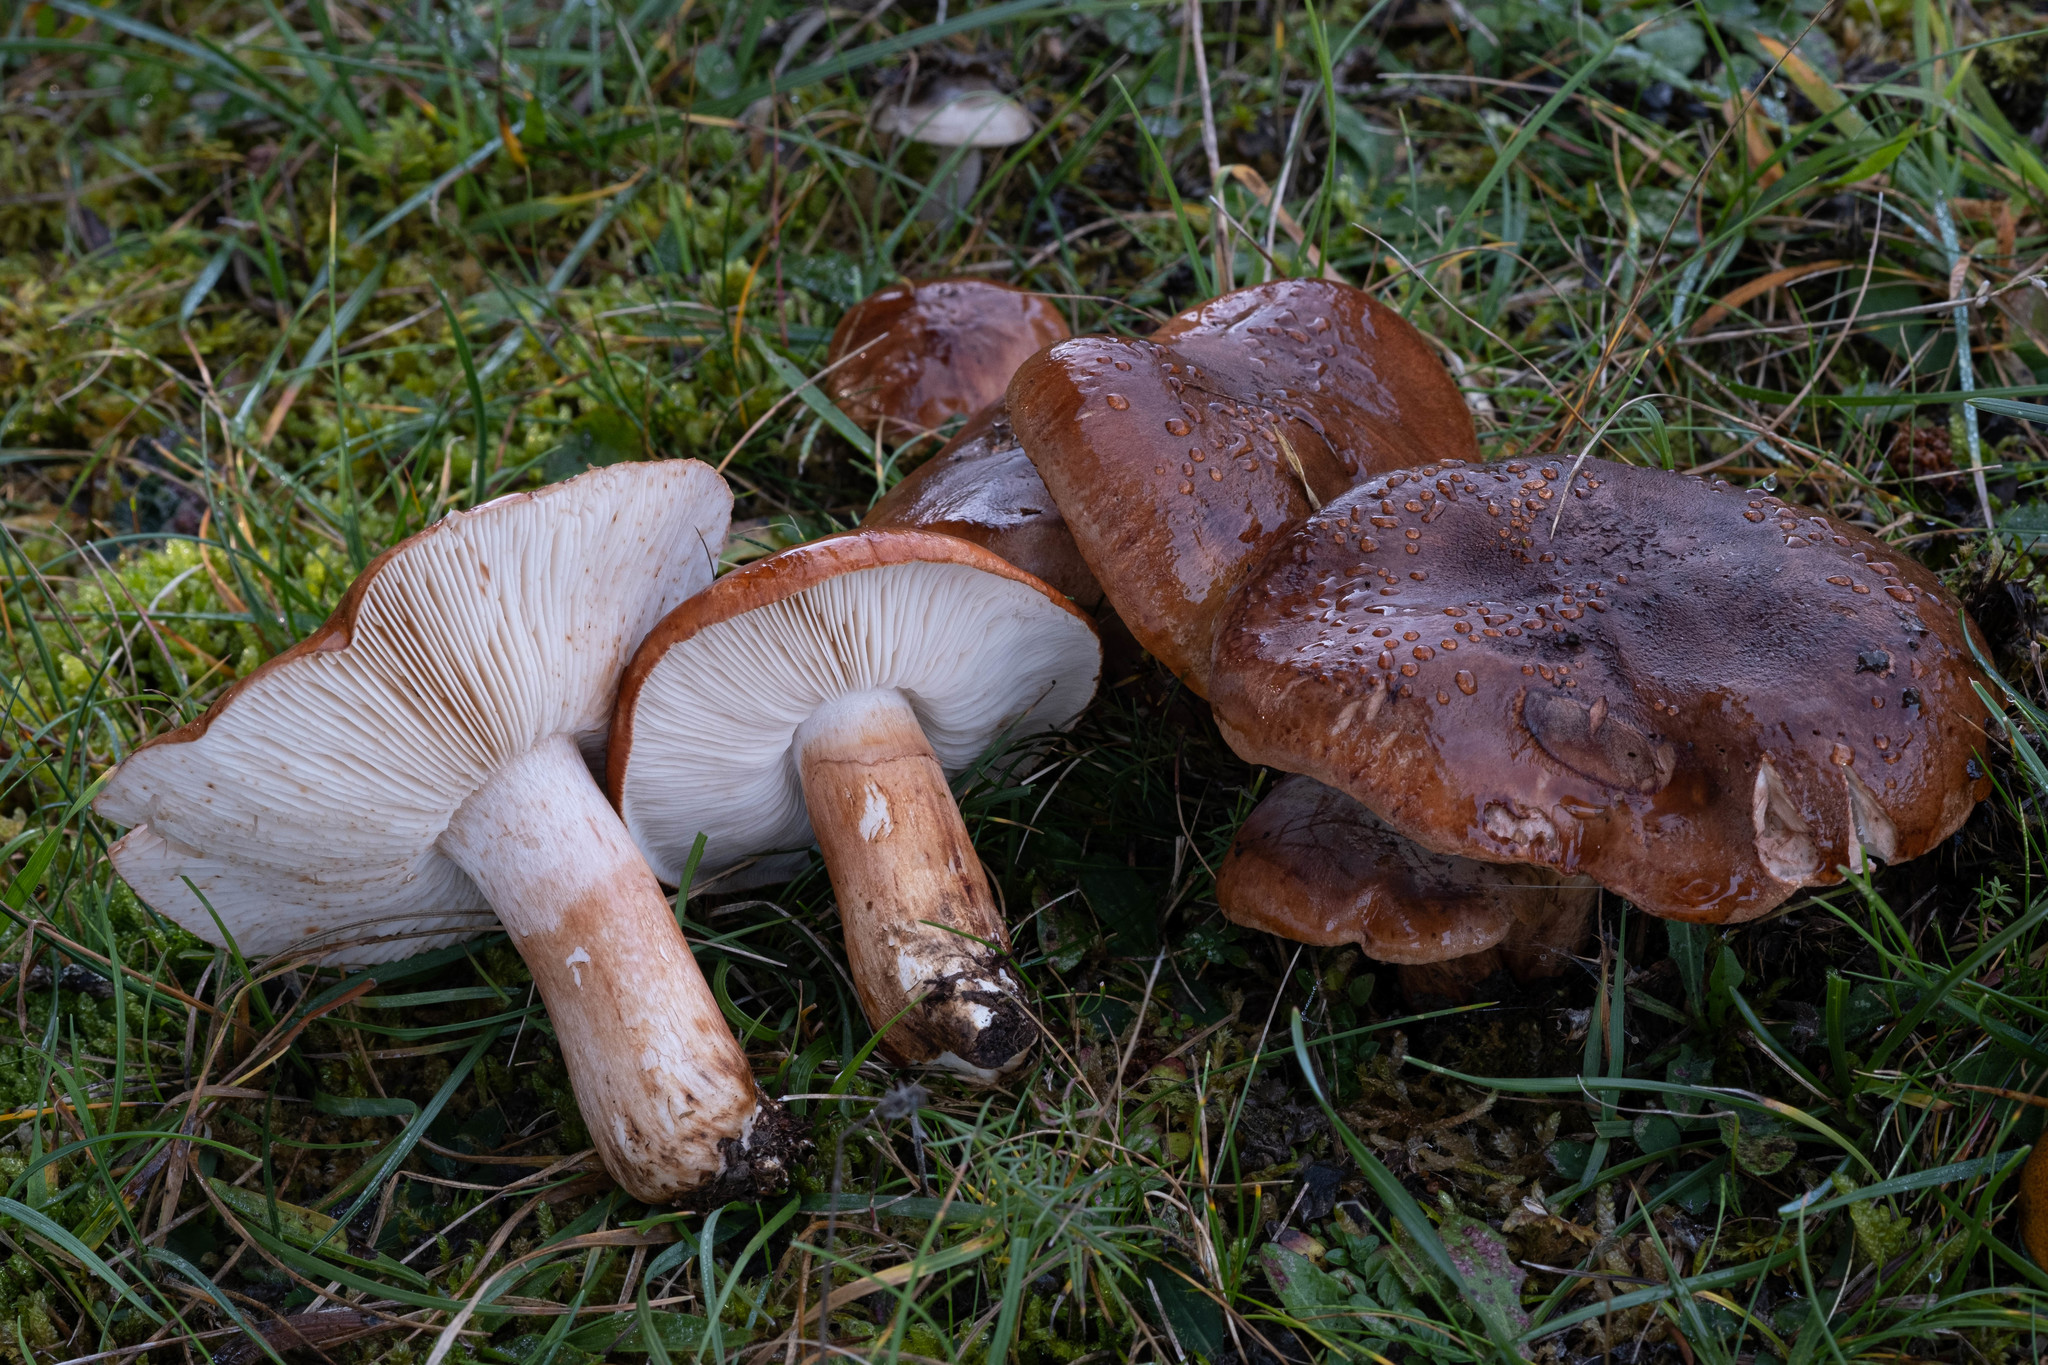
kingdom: Fungi
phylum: Basidiomycota
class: Agaricomycetes
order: Agaricales
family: Tricholomataceae
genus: Tricholoma
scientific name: Tricholoma batschii
